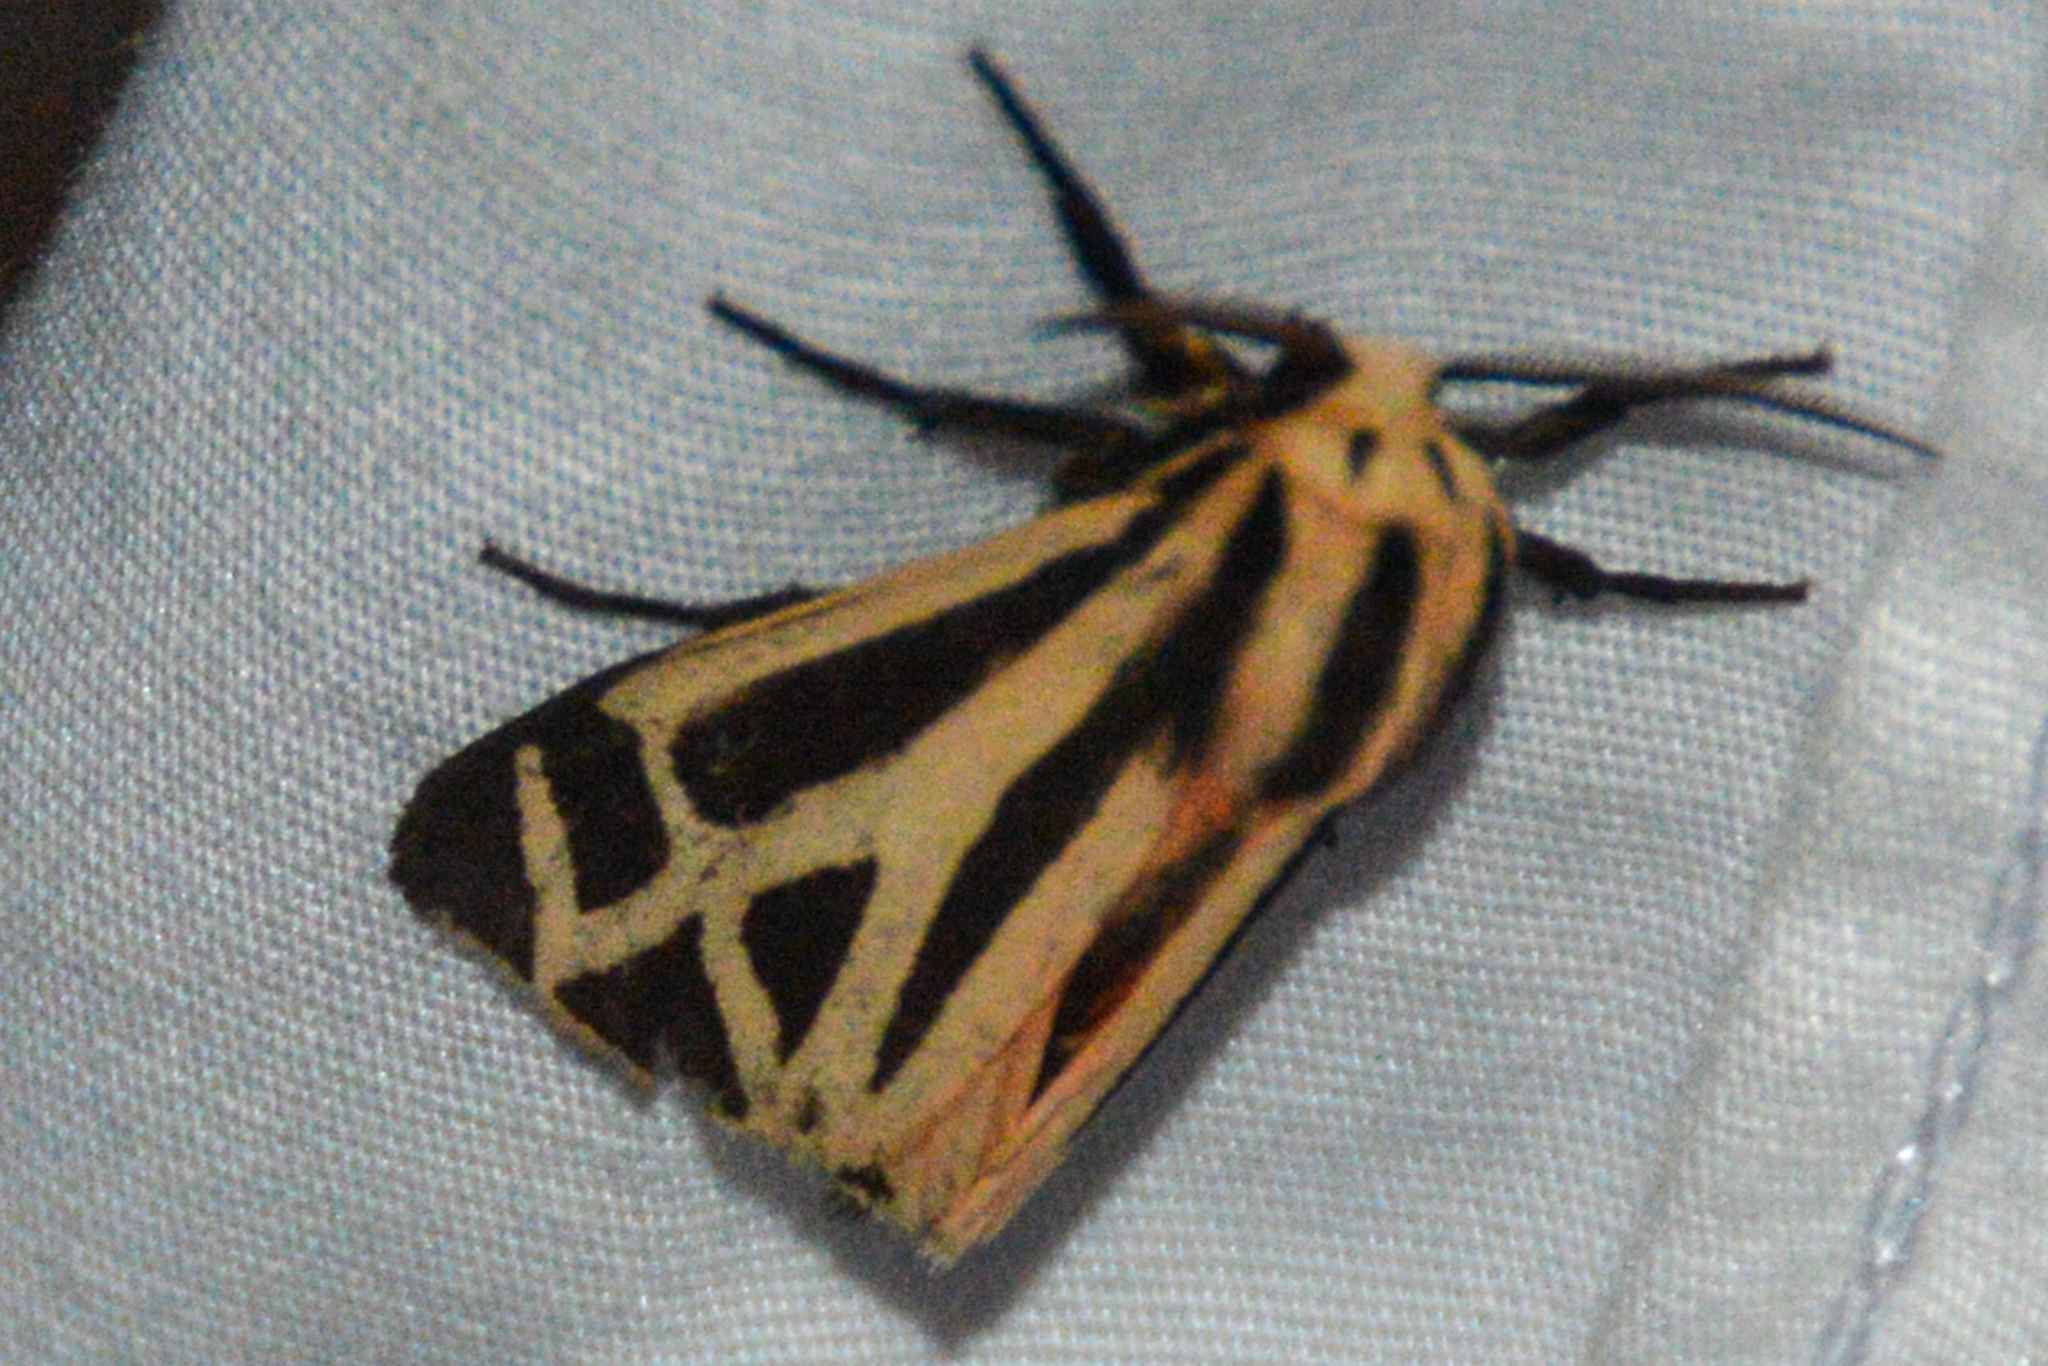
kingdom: Animalia
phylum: Arthropoda
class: Insecta
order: Lepidoptera
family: Erebidae
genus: Apantesis
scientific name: Apantesis phalerata
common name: Harnessed tiger moth
